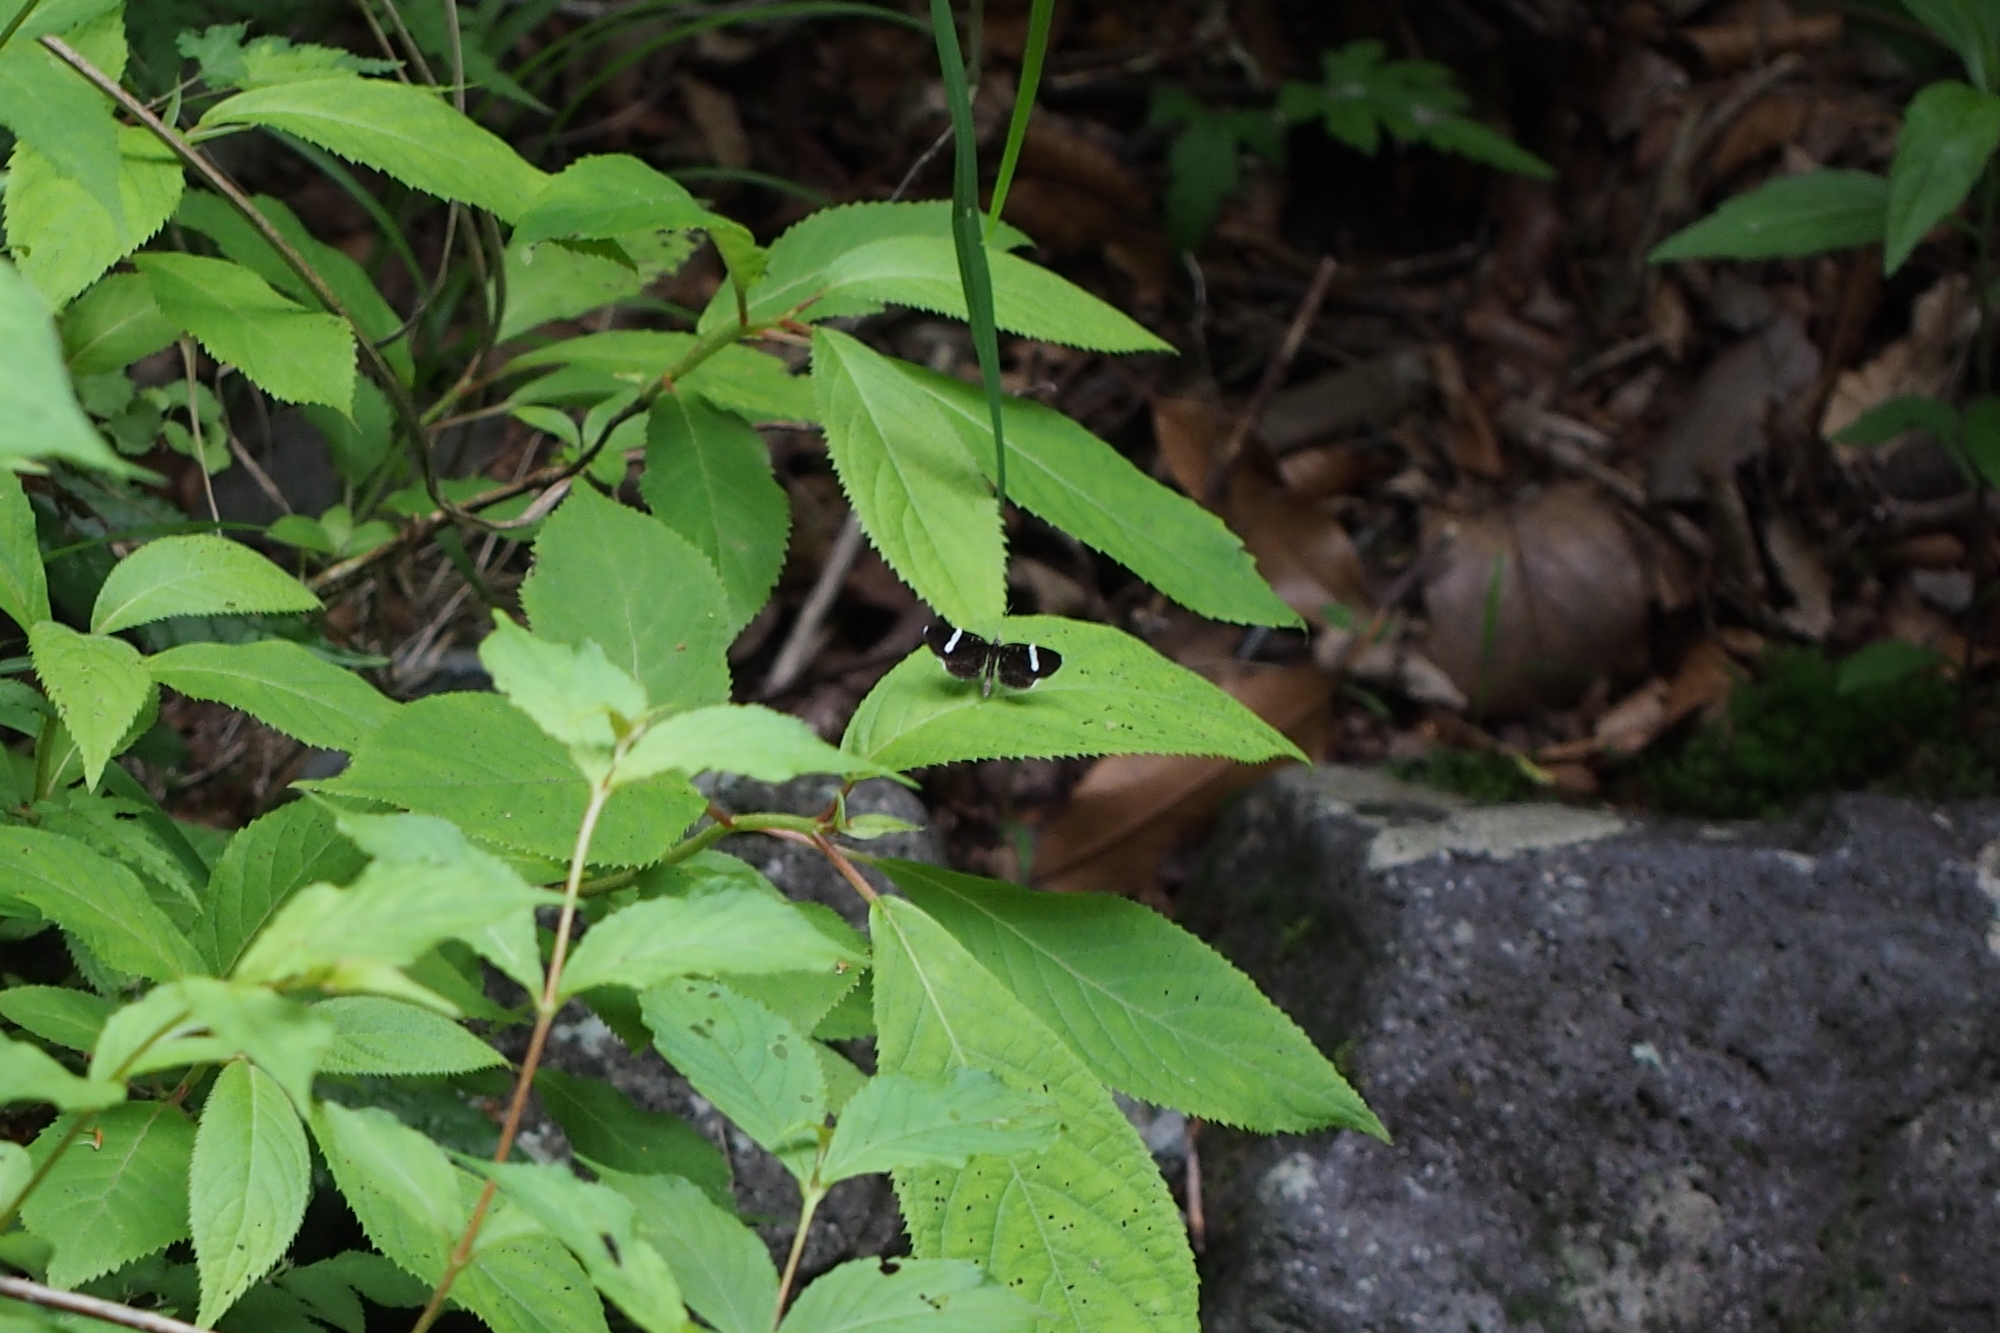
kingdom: Animalia
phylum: Arthropoda
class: Insecta
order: Lepidoptera
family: Geometridae
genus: Trichobaptria
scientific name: Trichobaptria exsecuta
